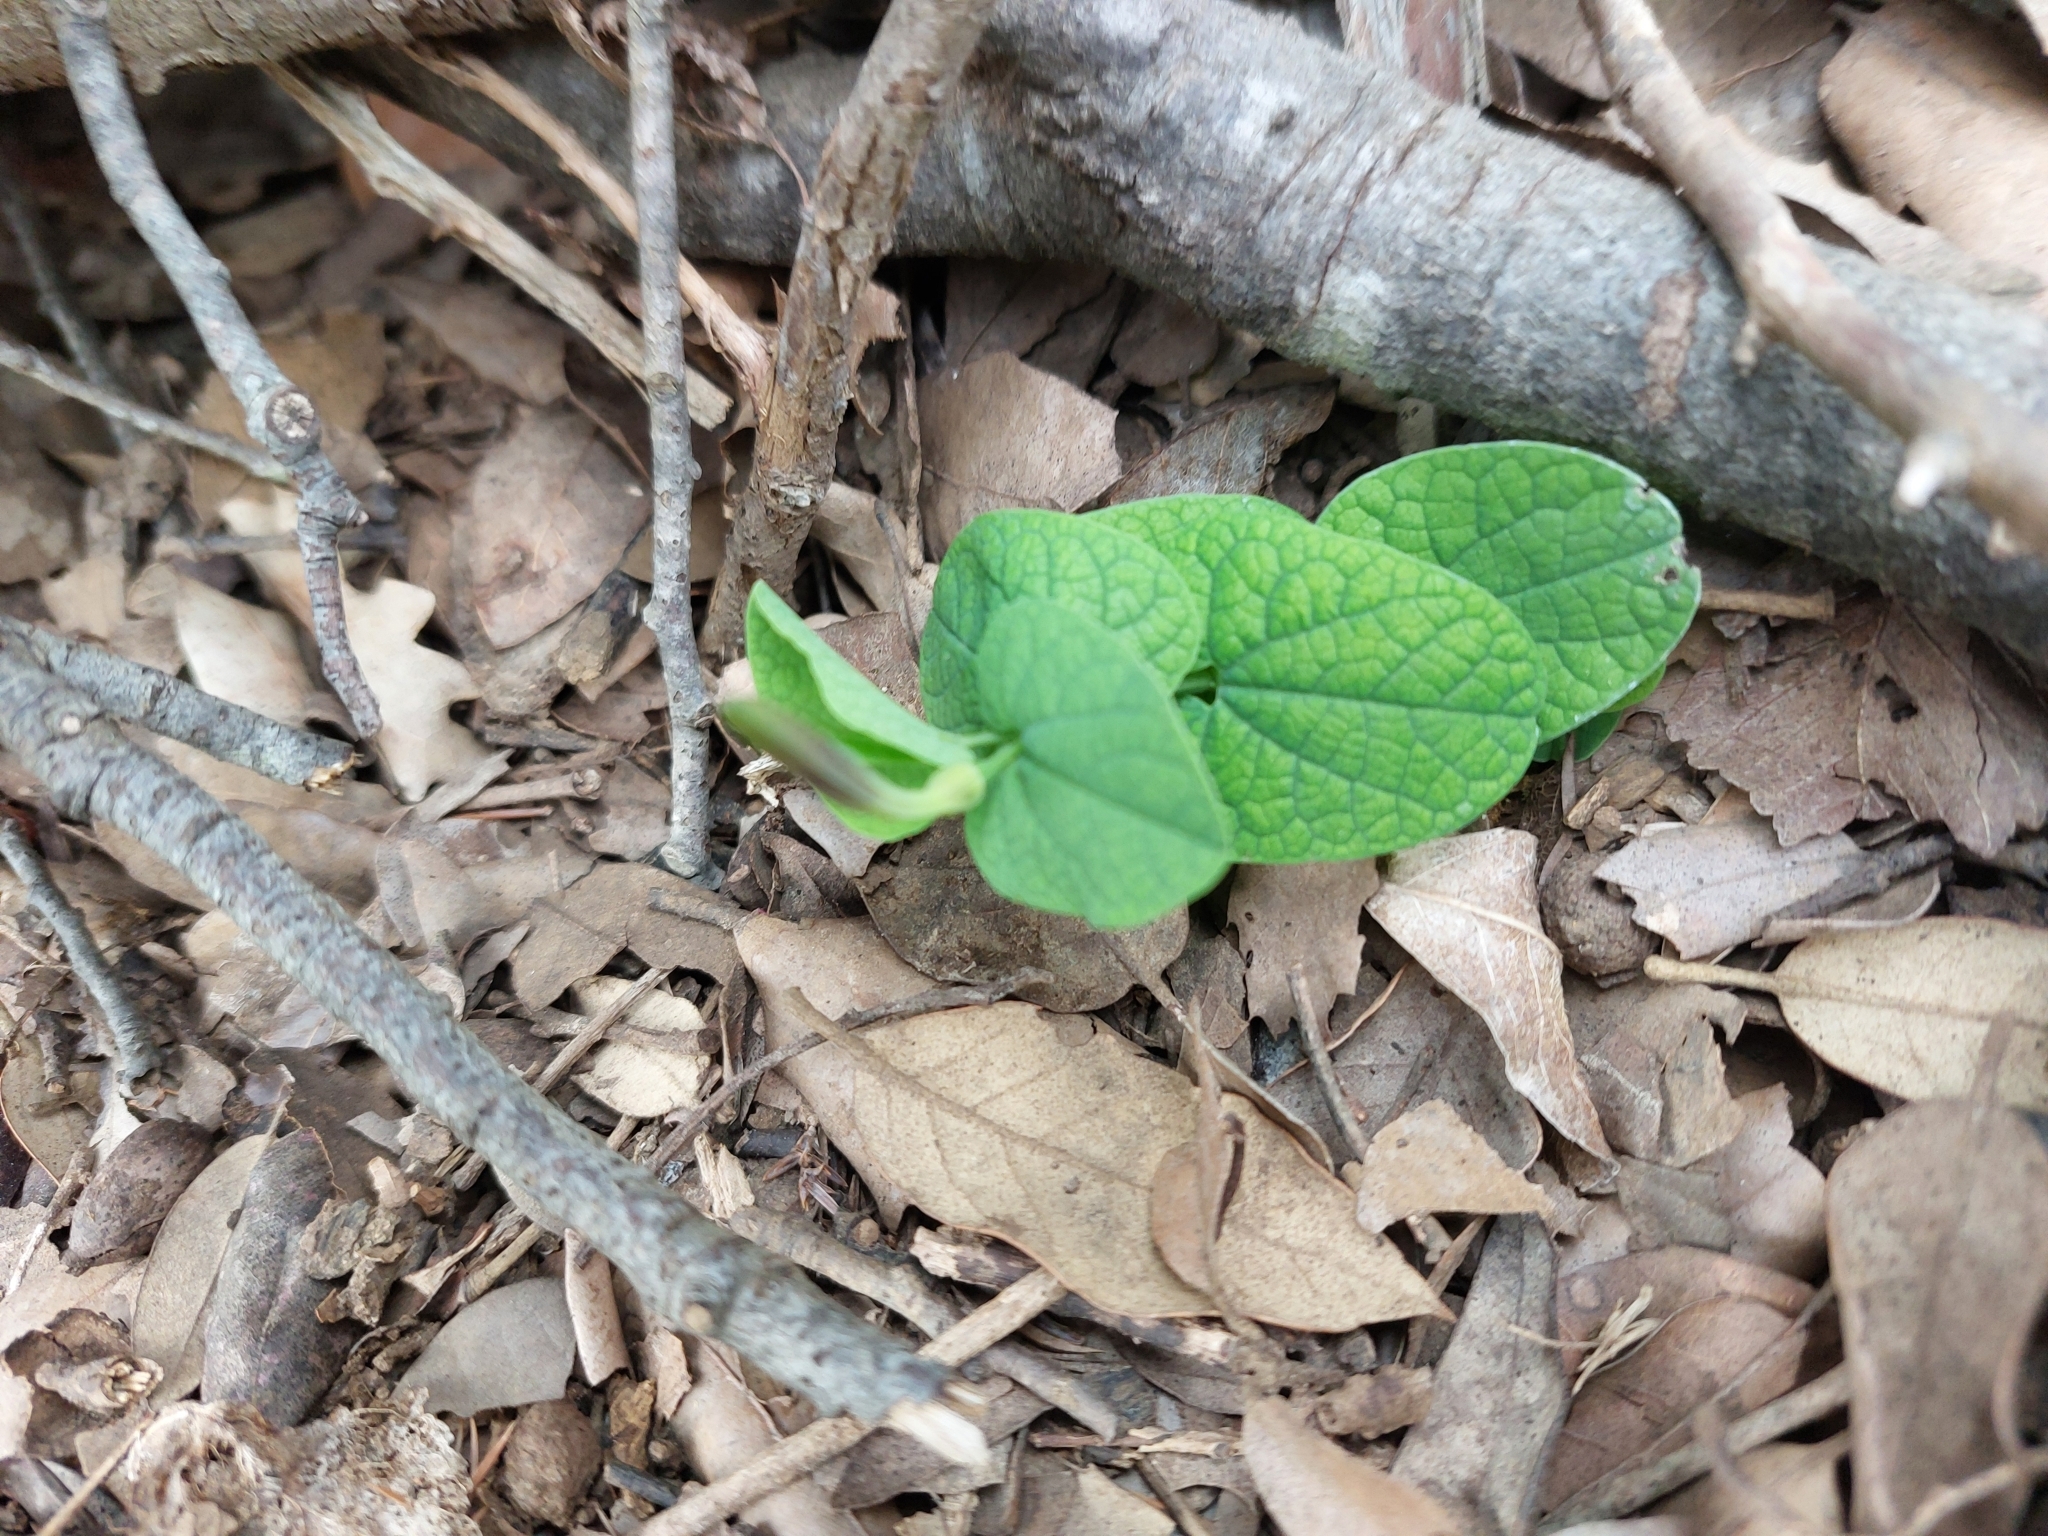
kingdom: Plantae
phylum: Tracheophyta
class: Magnoliopsida
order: Piperales
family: Aristolochiaceae
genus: Aristolochia
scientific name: Aristolochia rotunda
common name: Smearwort
